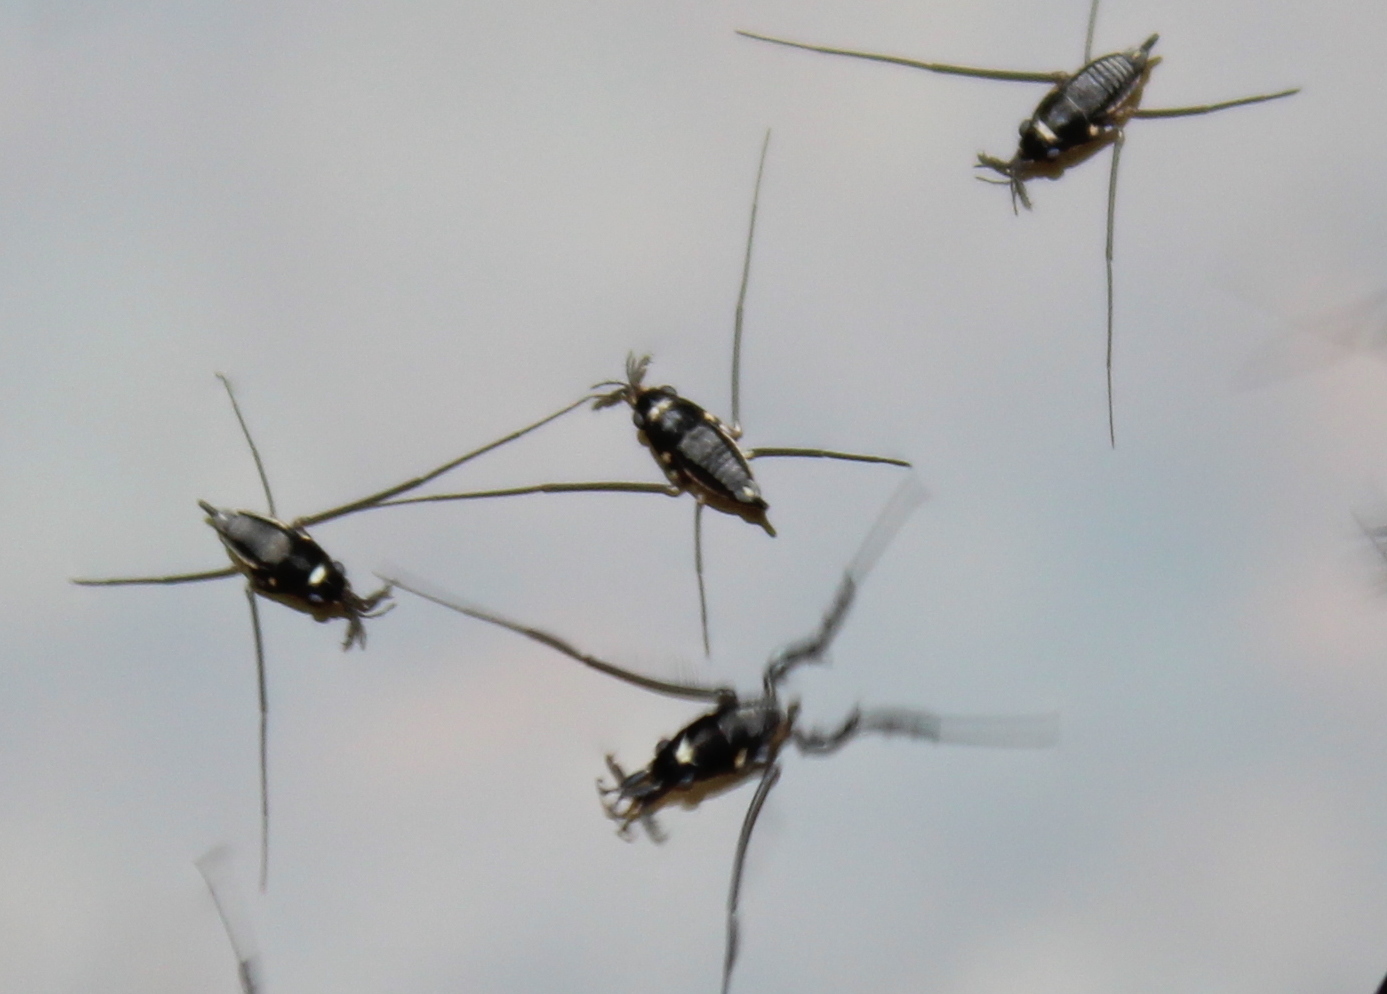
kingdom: Animalia
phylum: Arthropoda
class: Insecta
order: Hemiptera
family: Gerridae
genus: Rheumatobates
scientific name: Rheumatobates rileyi
